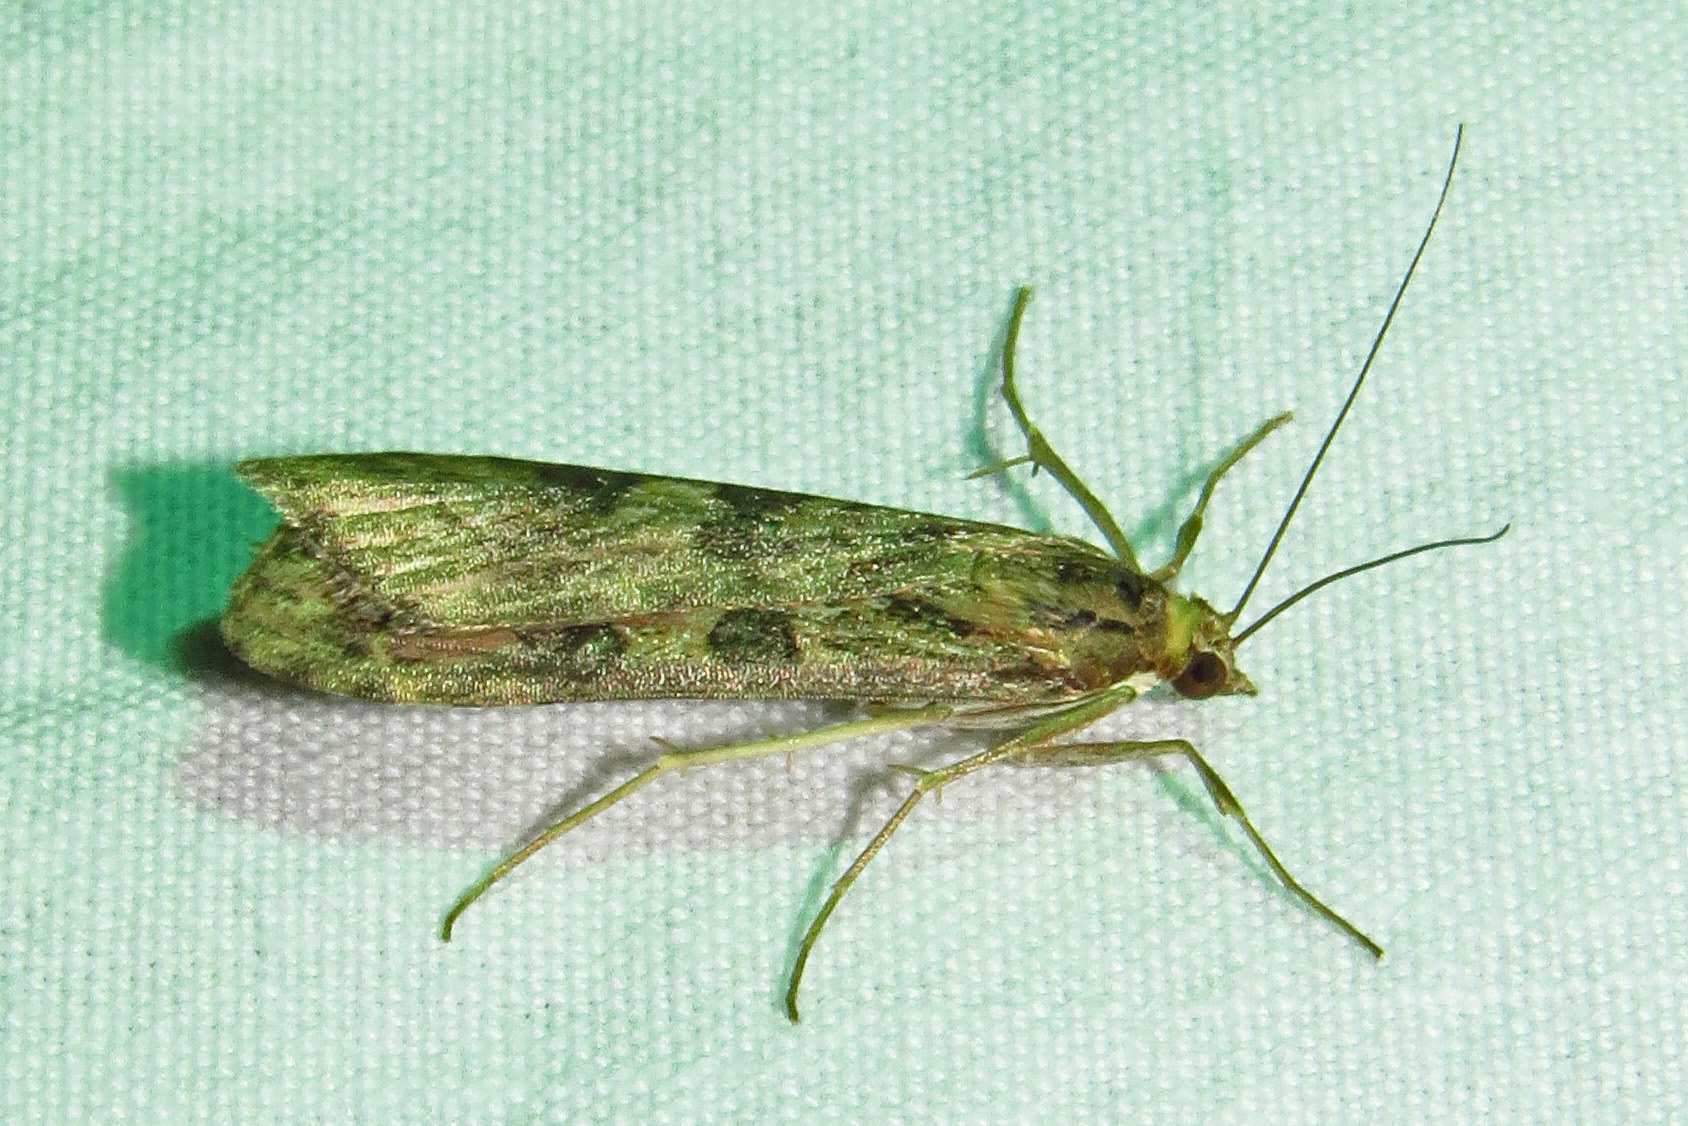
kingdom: Animalia
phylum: Arthropoda
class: Insecta
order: Lepidoptera
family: Crambidae
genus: Nomophila
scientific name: Nomophila nearctica
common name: American rush veneer
